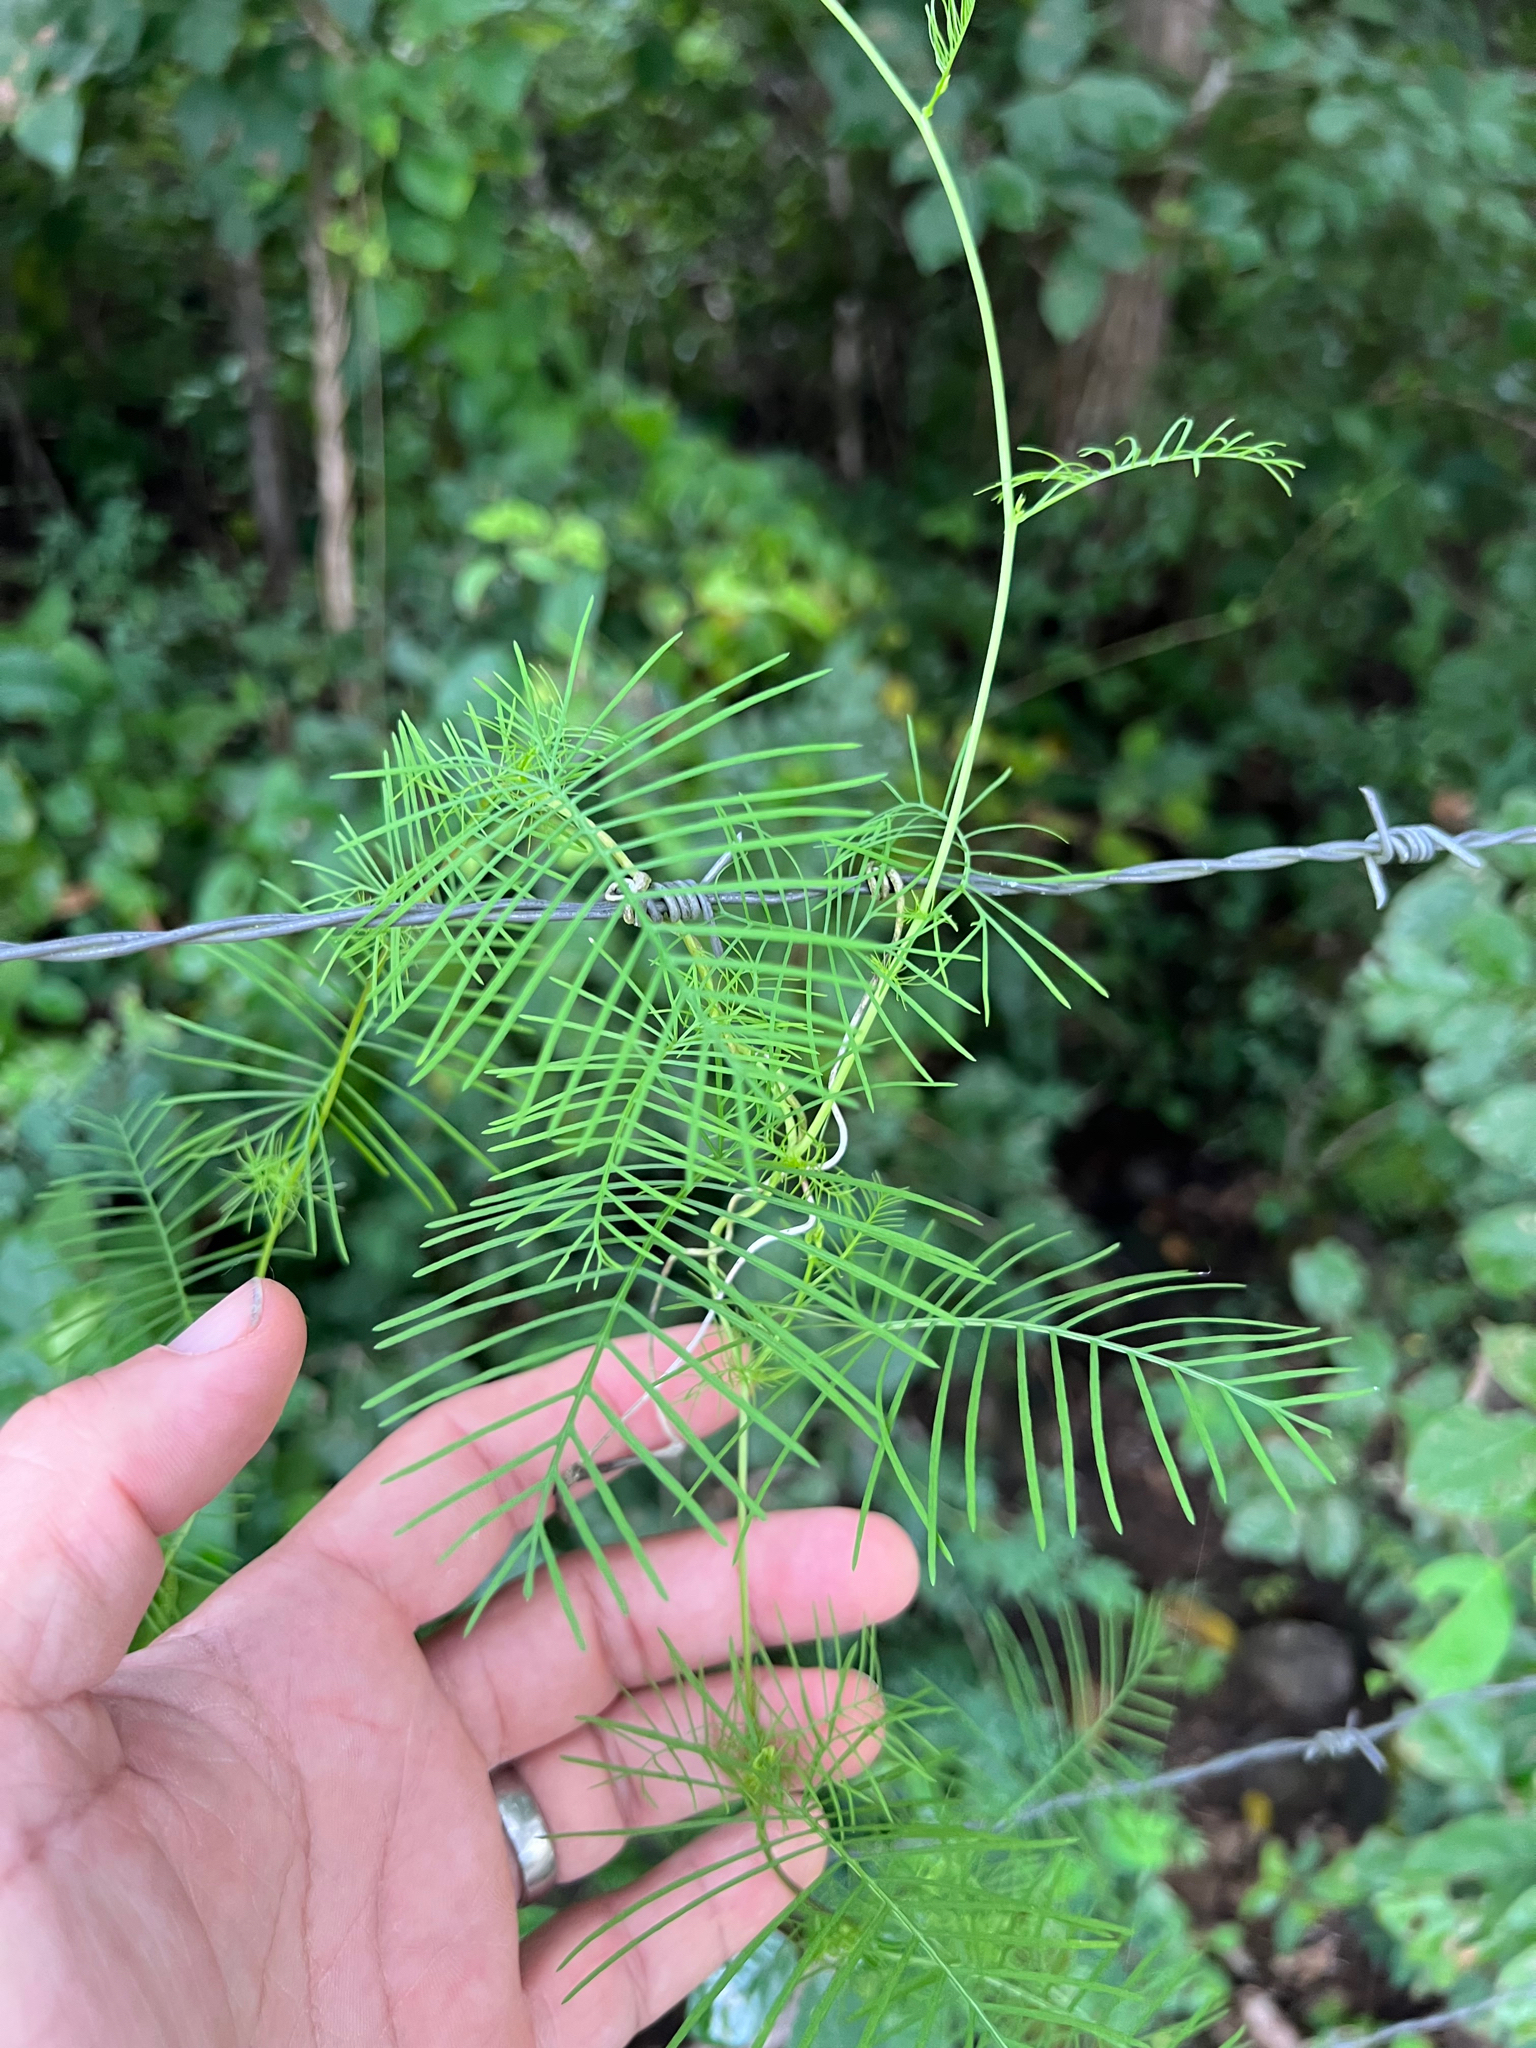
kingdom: Plantae
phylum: Tracheophyta
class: Magnoliopsida
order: Solanales
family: Convolvulaceae
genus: Ipomoea
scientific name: Ipomoea quamoclit
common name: Cypress vine
